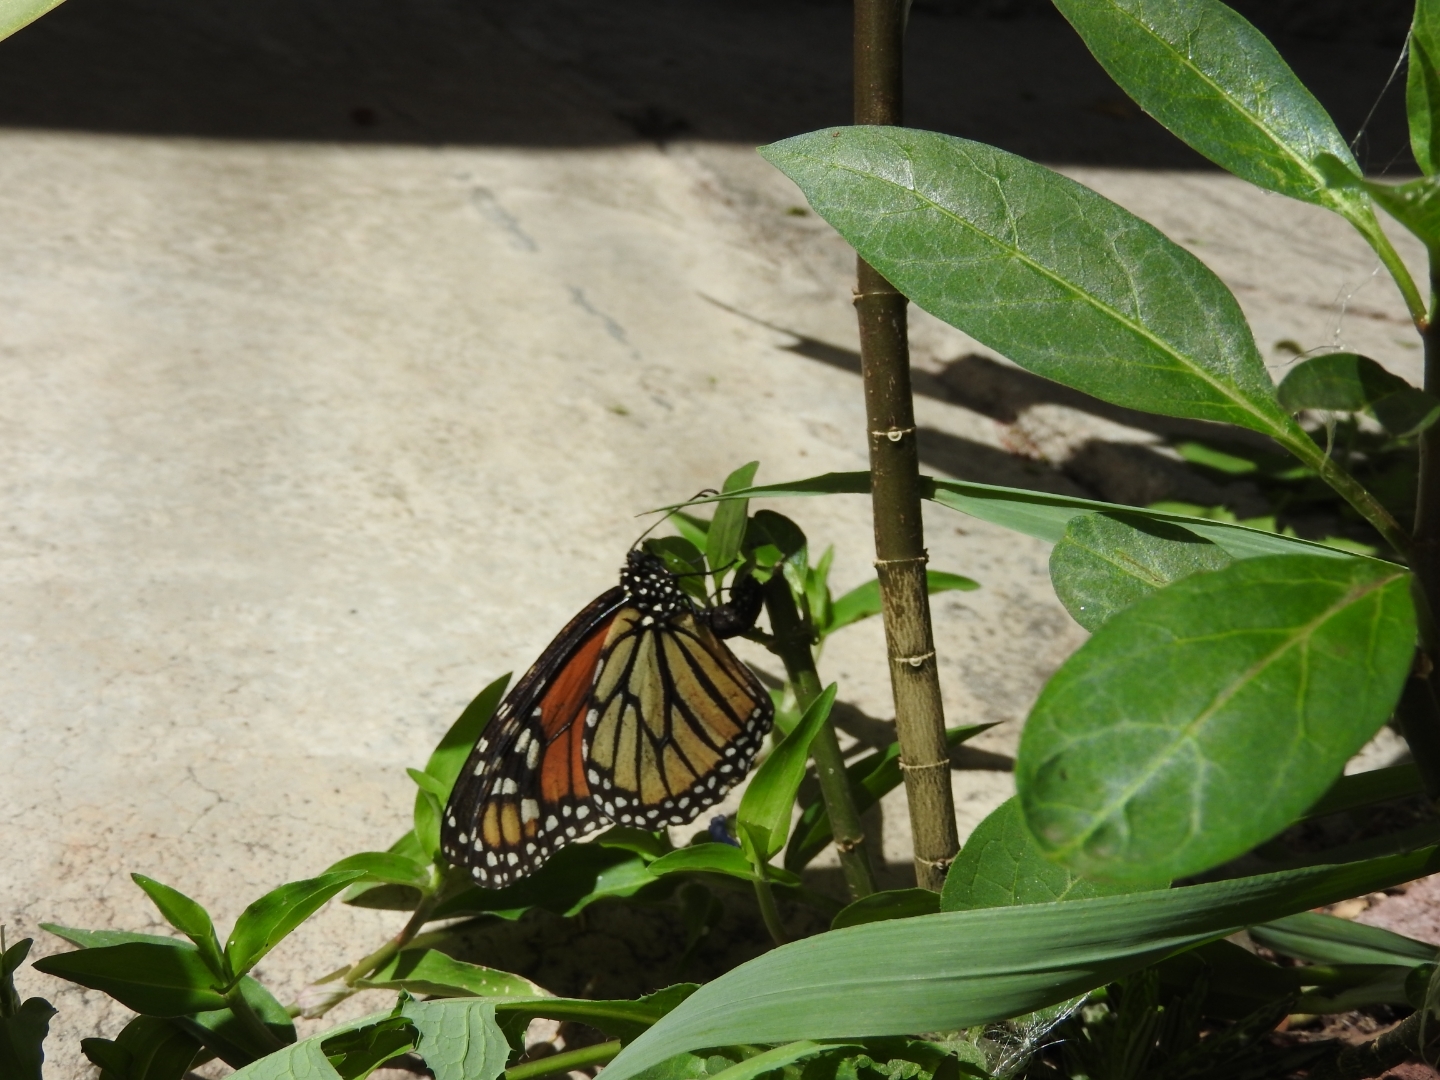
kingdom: Animalia
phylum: Arthropoda
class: Insecta
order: Lepidoptera
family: Nymphalidae
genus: Danaus
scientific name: Danaus plexippus
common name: Monarch
